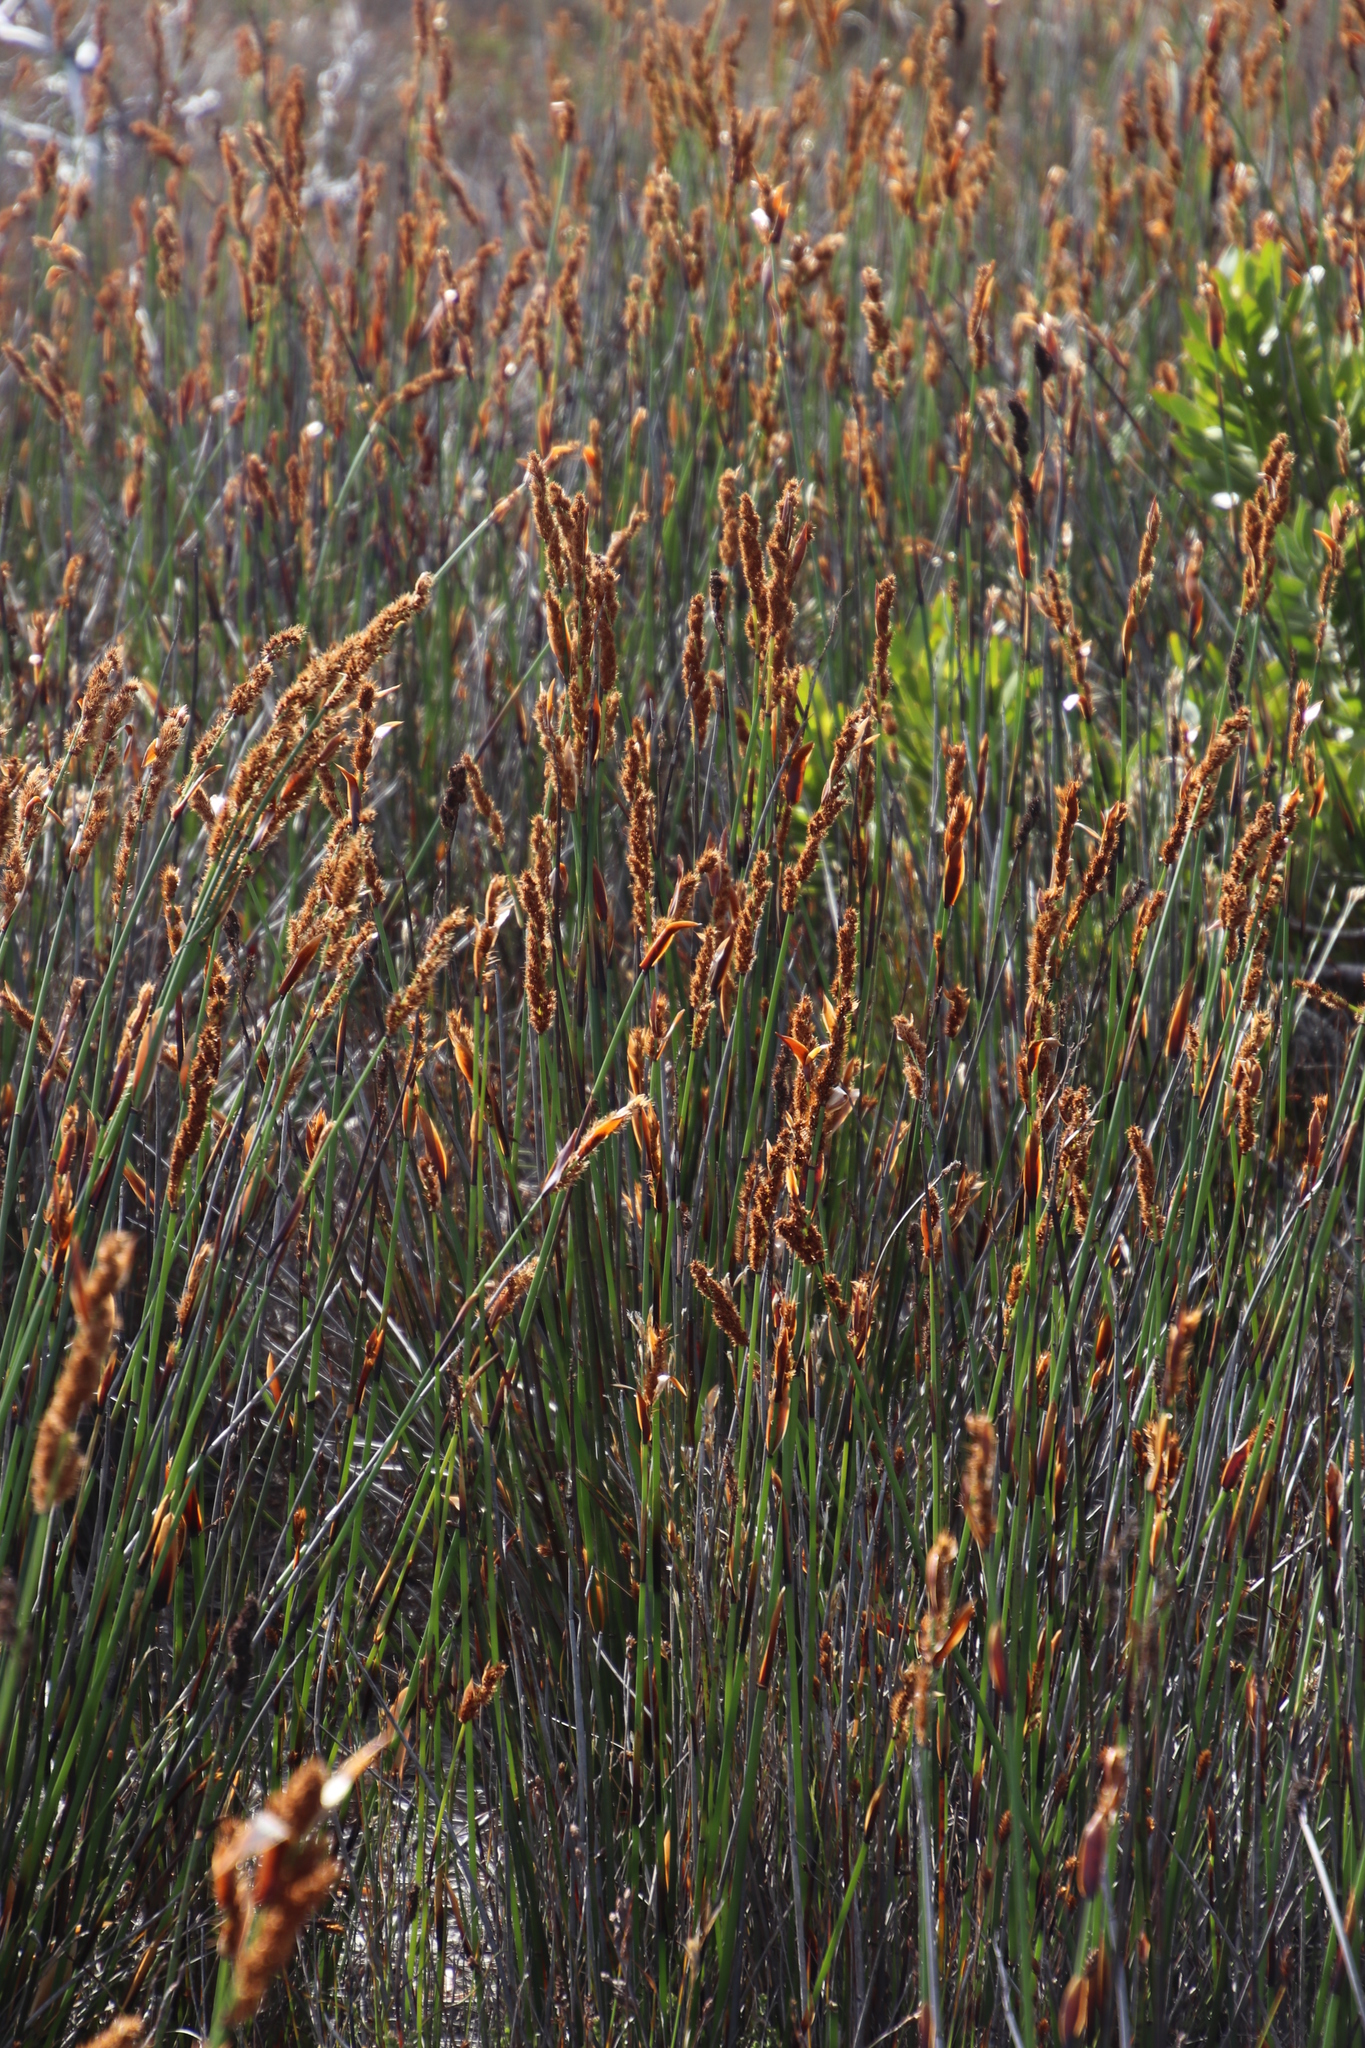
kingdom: Plantae
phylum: Tracheophyta
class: Liliopsida
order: Poales
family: Restionaceae
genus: Elegia
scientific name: Elegia cuspidata
